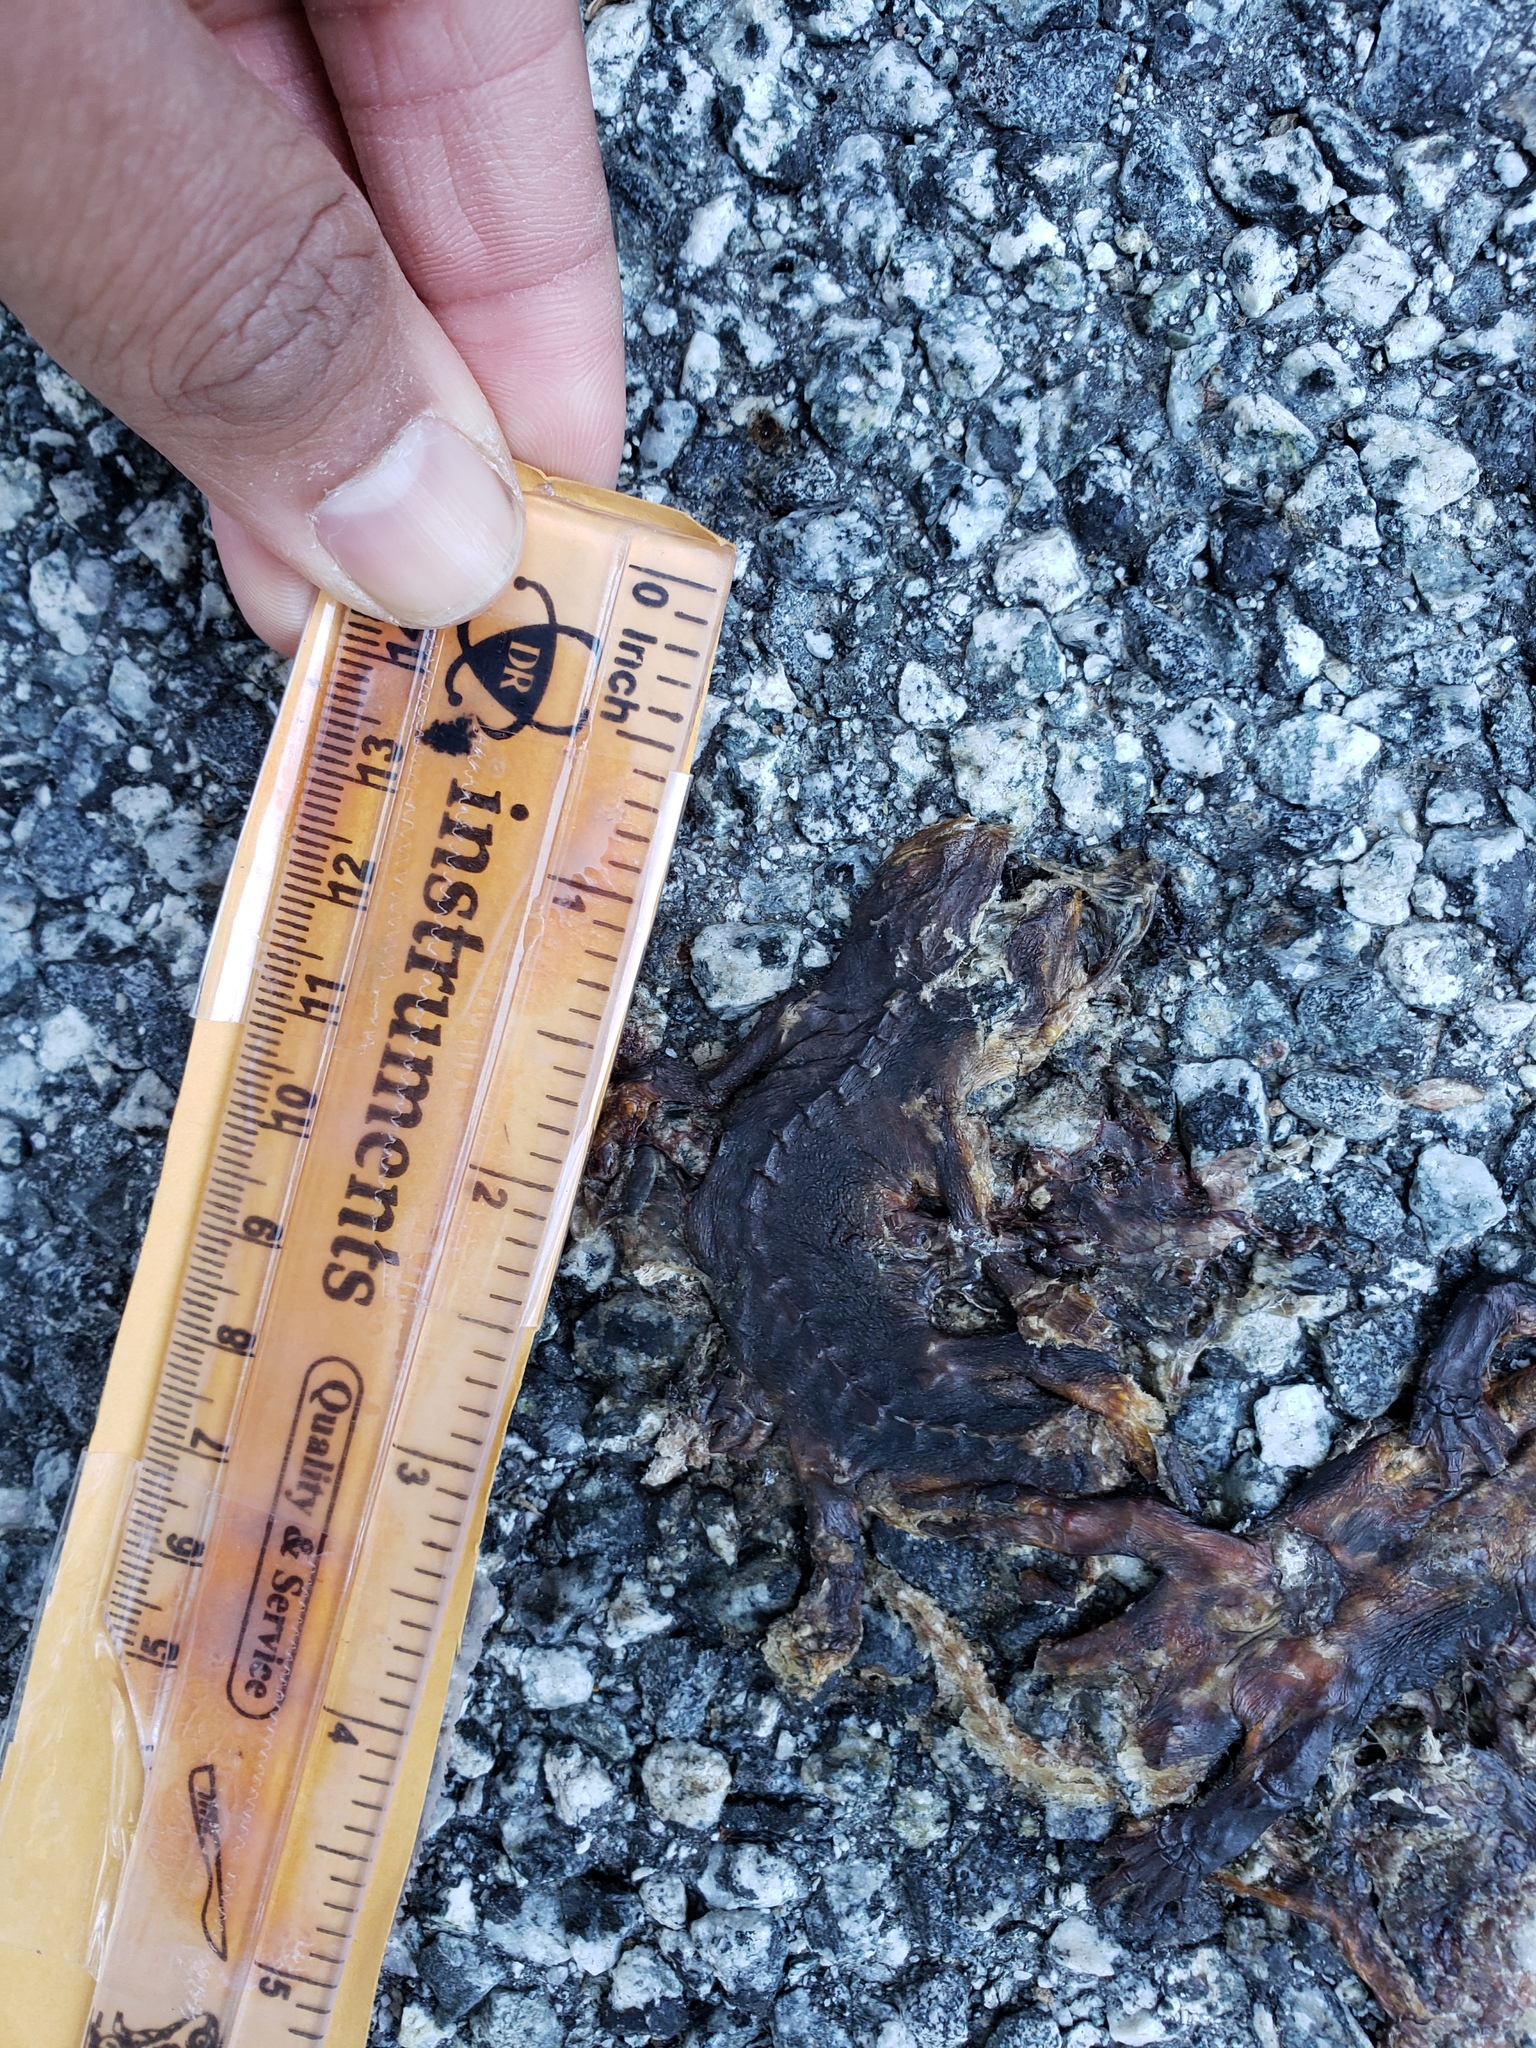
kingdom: Animalia
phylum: Chordata
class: Amphibia
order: Caudata
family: Salamandridae
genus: Taricha
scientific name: Taricha
